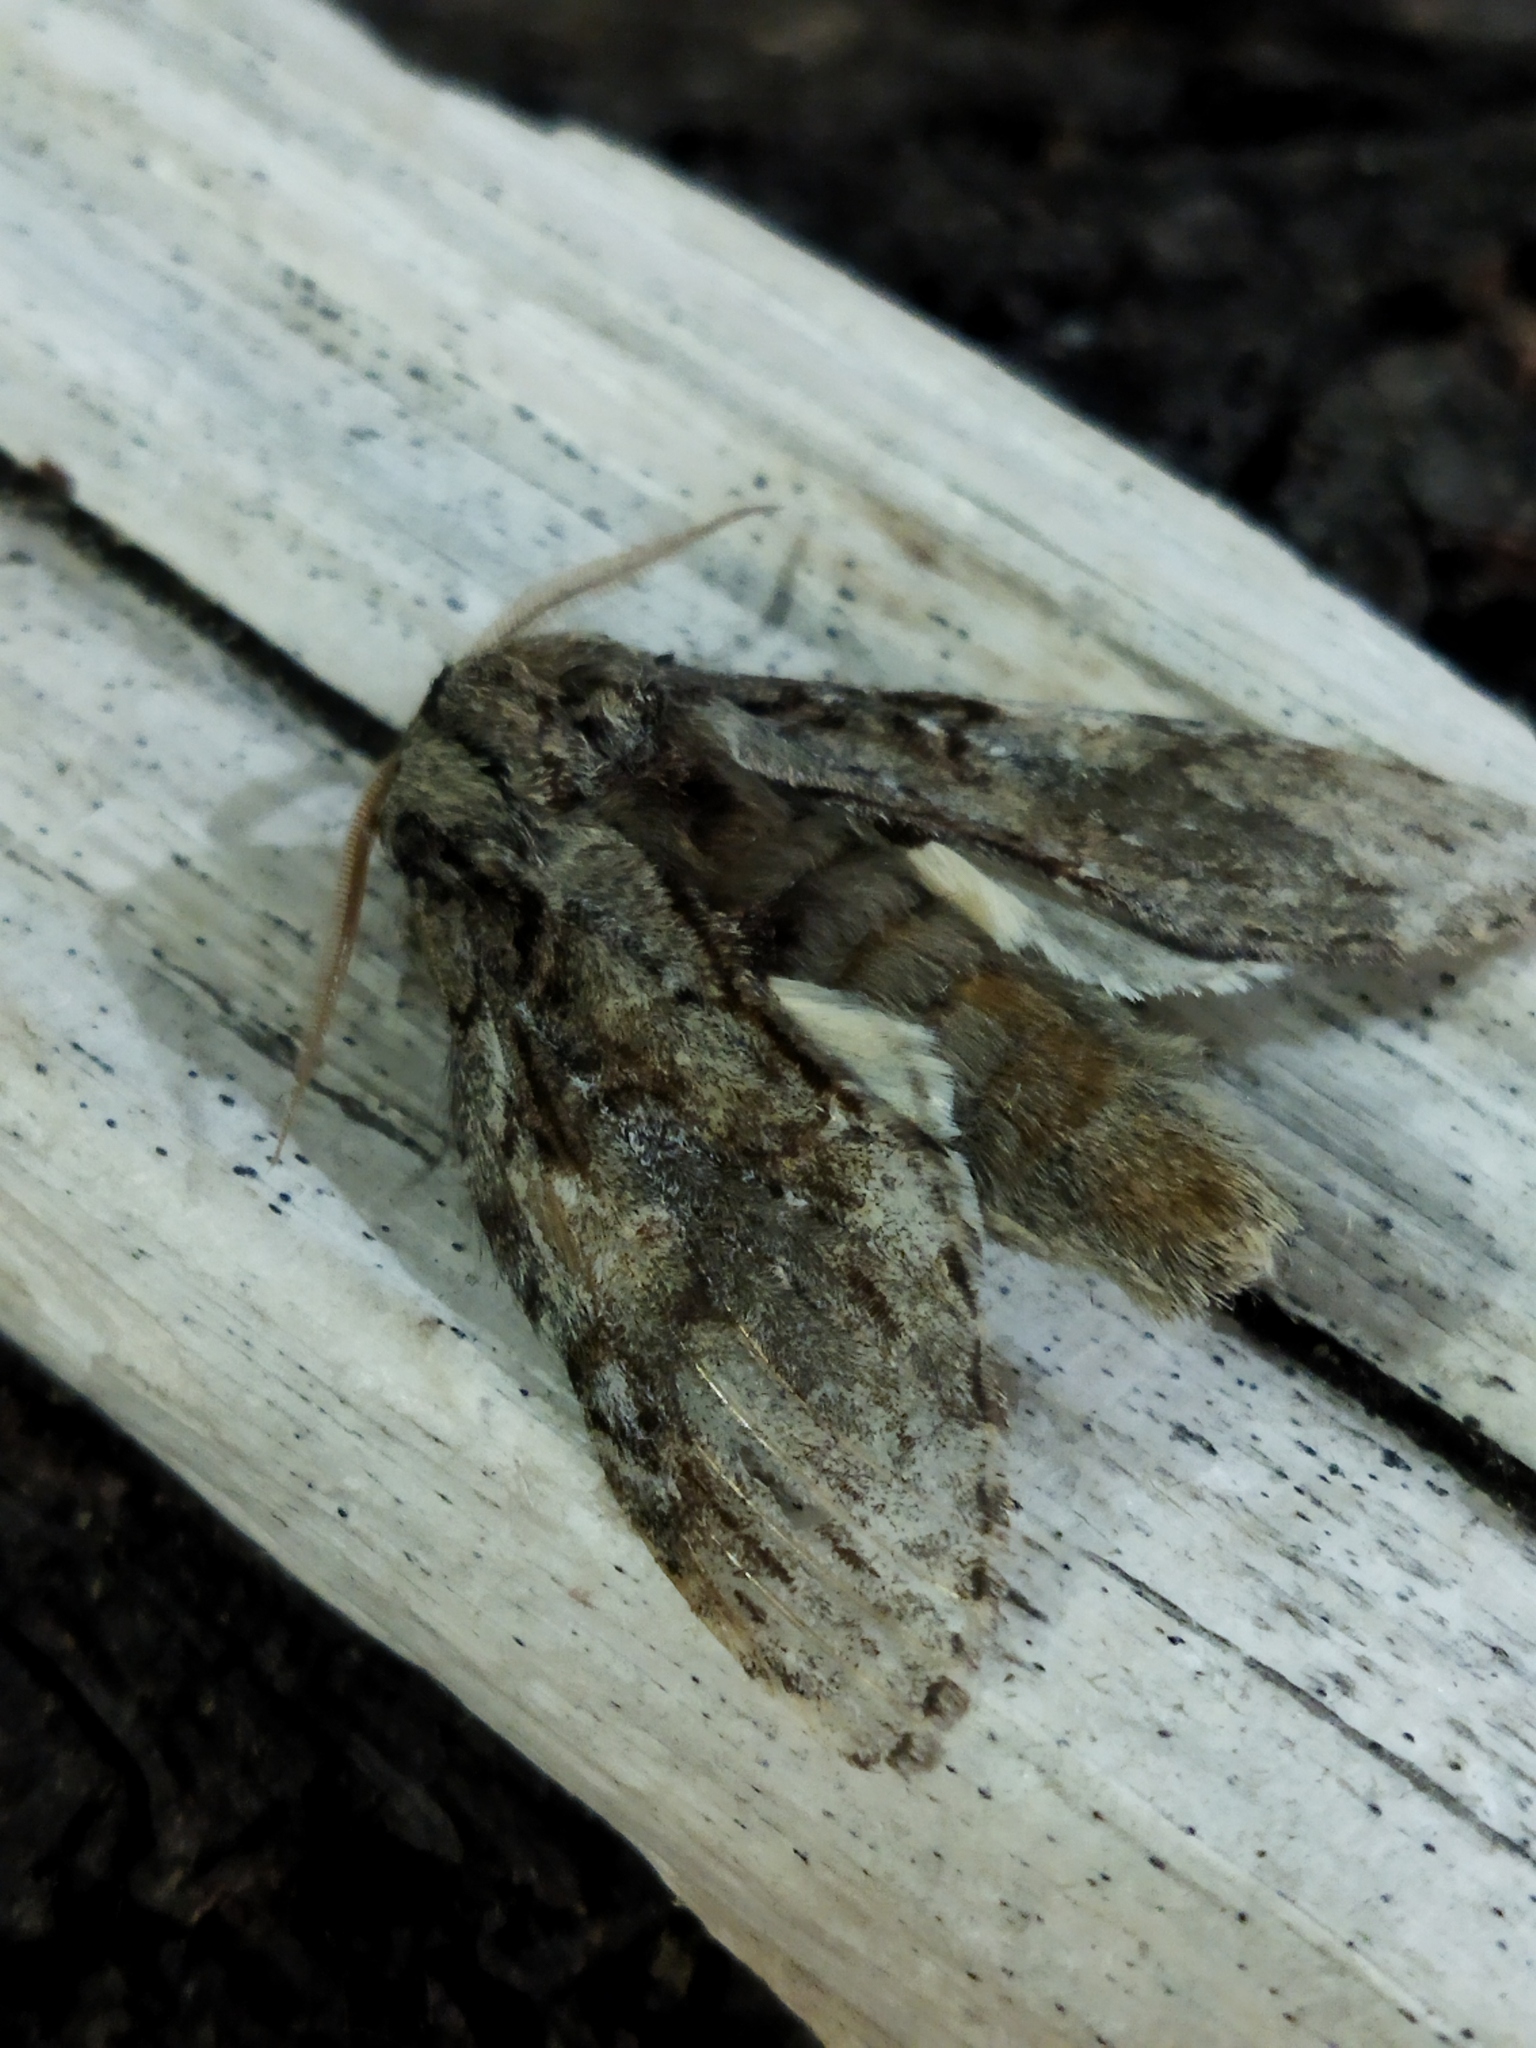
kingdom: Animalia
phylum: Arthropoda
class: Insecta
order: Lepidoptera
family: Notodontidae
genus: Peridea
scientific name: Peridea korbi
